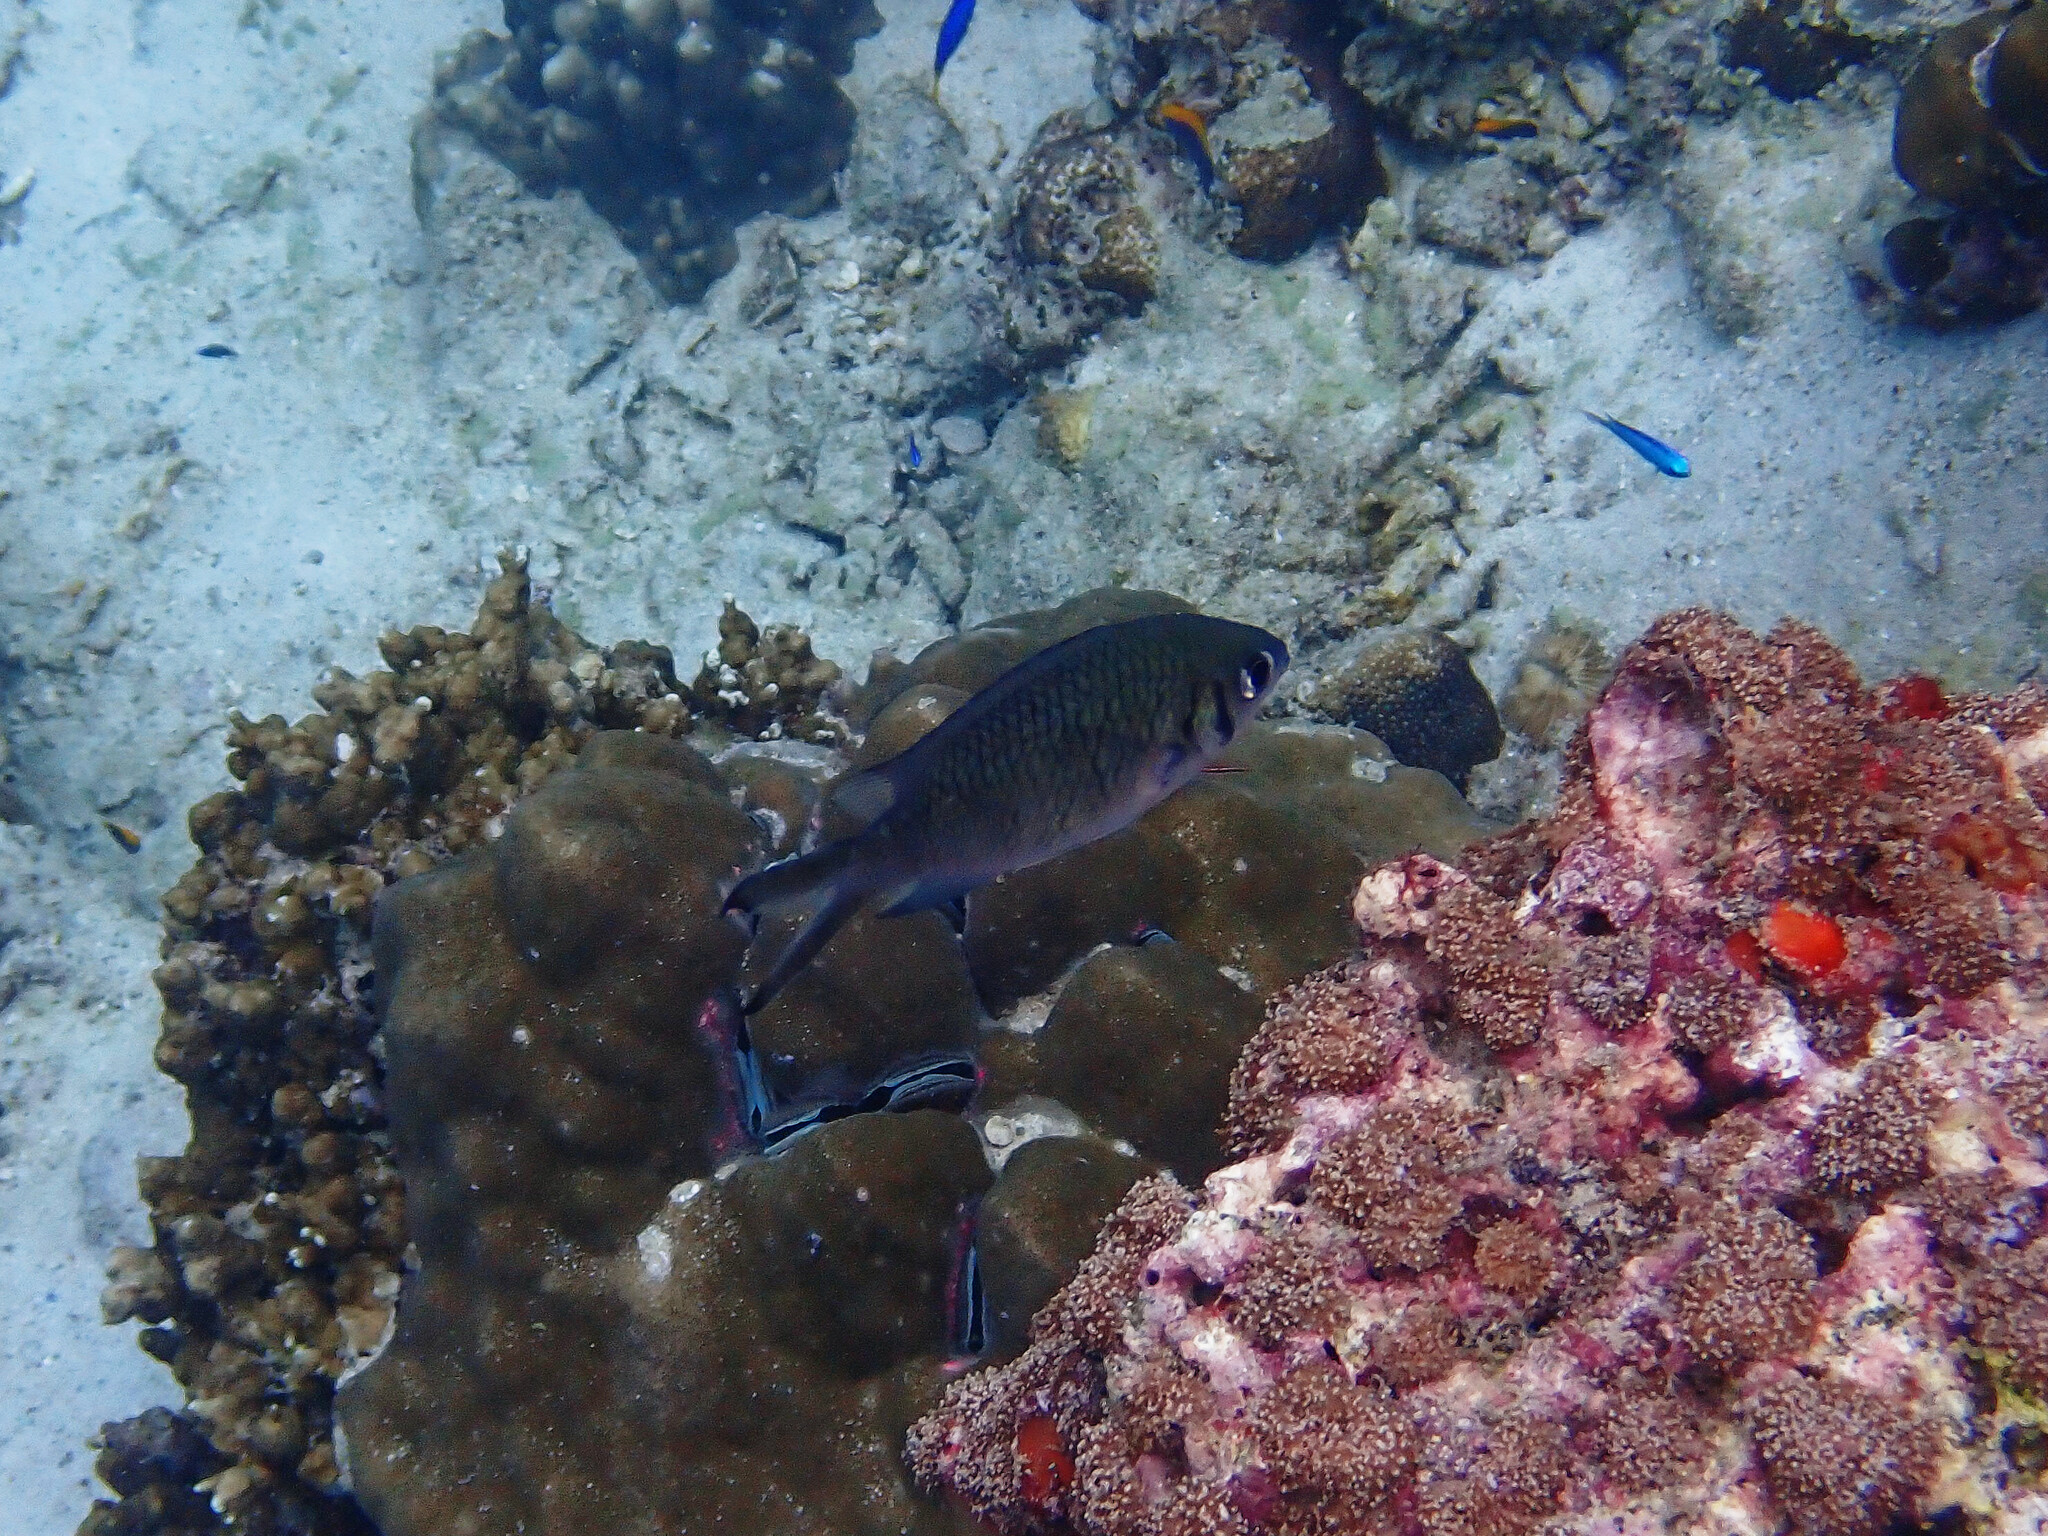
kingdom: Animalia
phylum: Chordata
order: Perciformes
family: Pomacentridae
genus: Chromis
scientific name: Chromis weberi
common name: Weber's chromis
